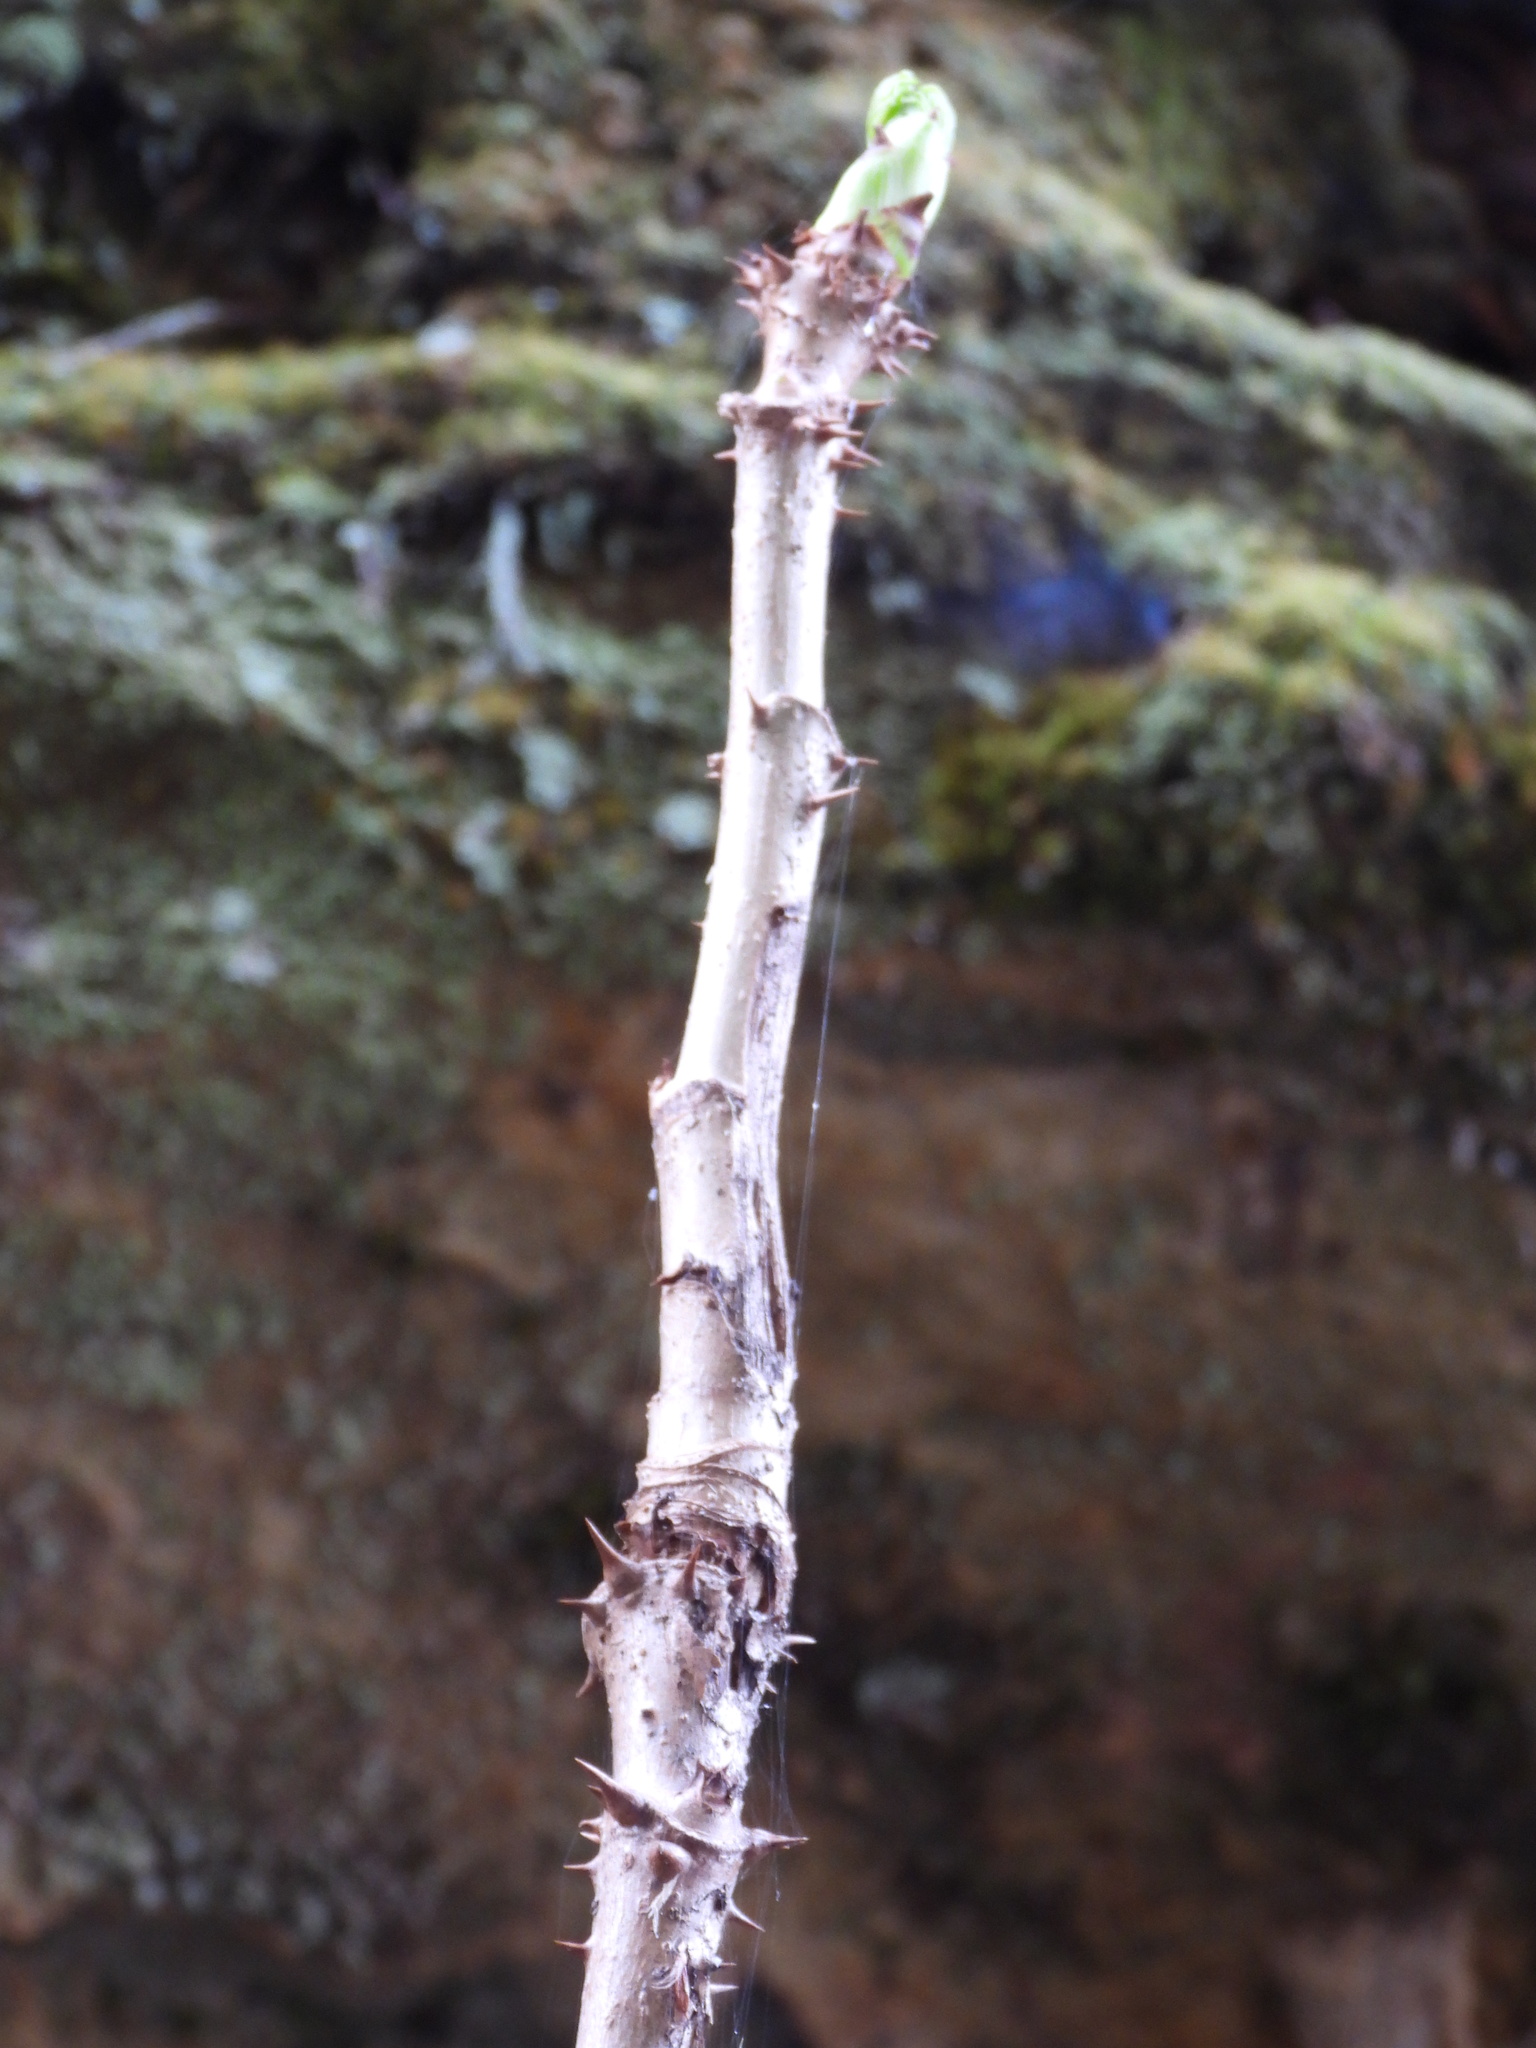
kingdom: Plantae
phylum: Tracheophyta
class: Magnoliopsida
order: Apiales
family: Araliaceae
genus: Aralia
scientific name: Aralia spinosa
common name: Hercules'-club
